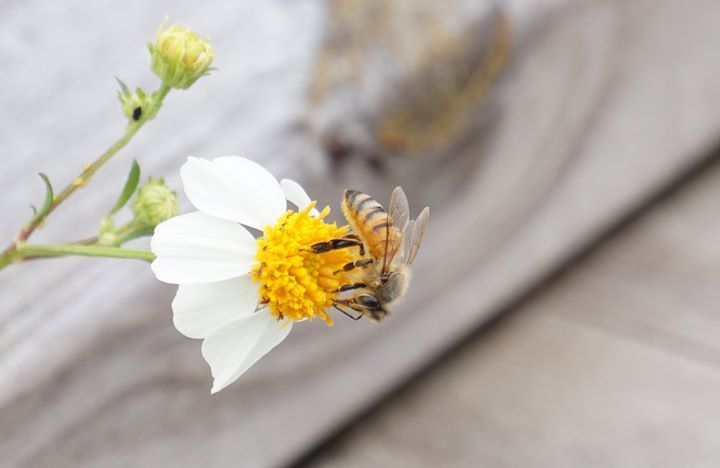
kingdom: Animalia
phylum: Arthropoda
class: Insecta
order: Hymenoptera
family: Apidae
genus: Apis
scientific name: Apis mellifera
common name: Honey bee
